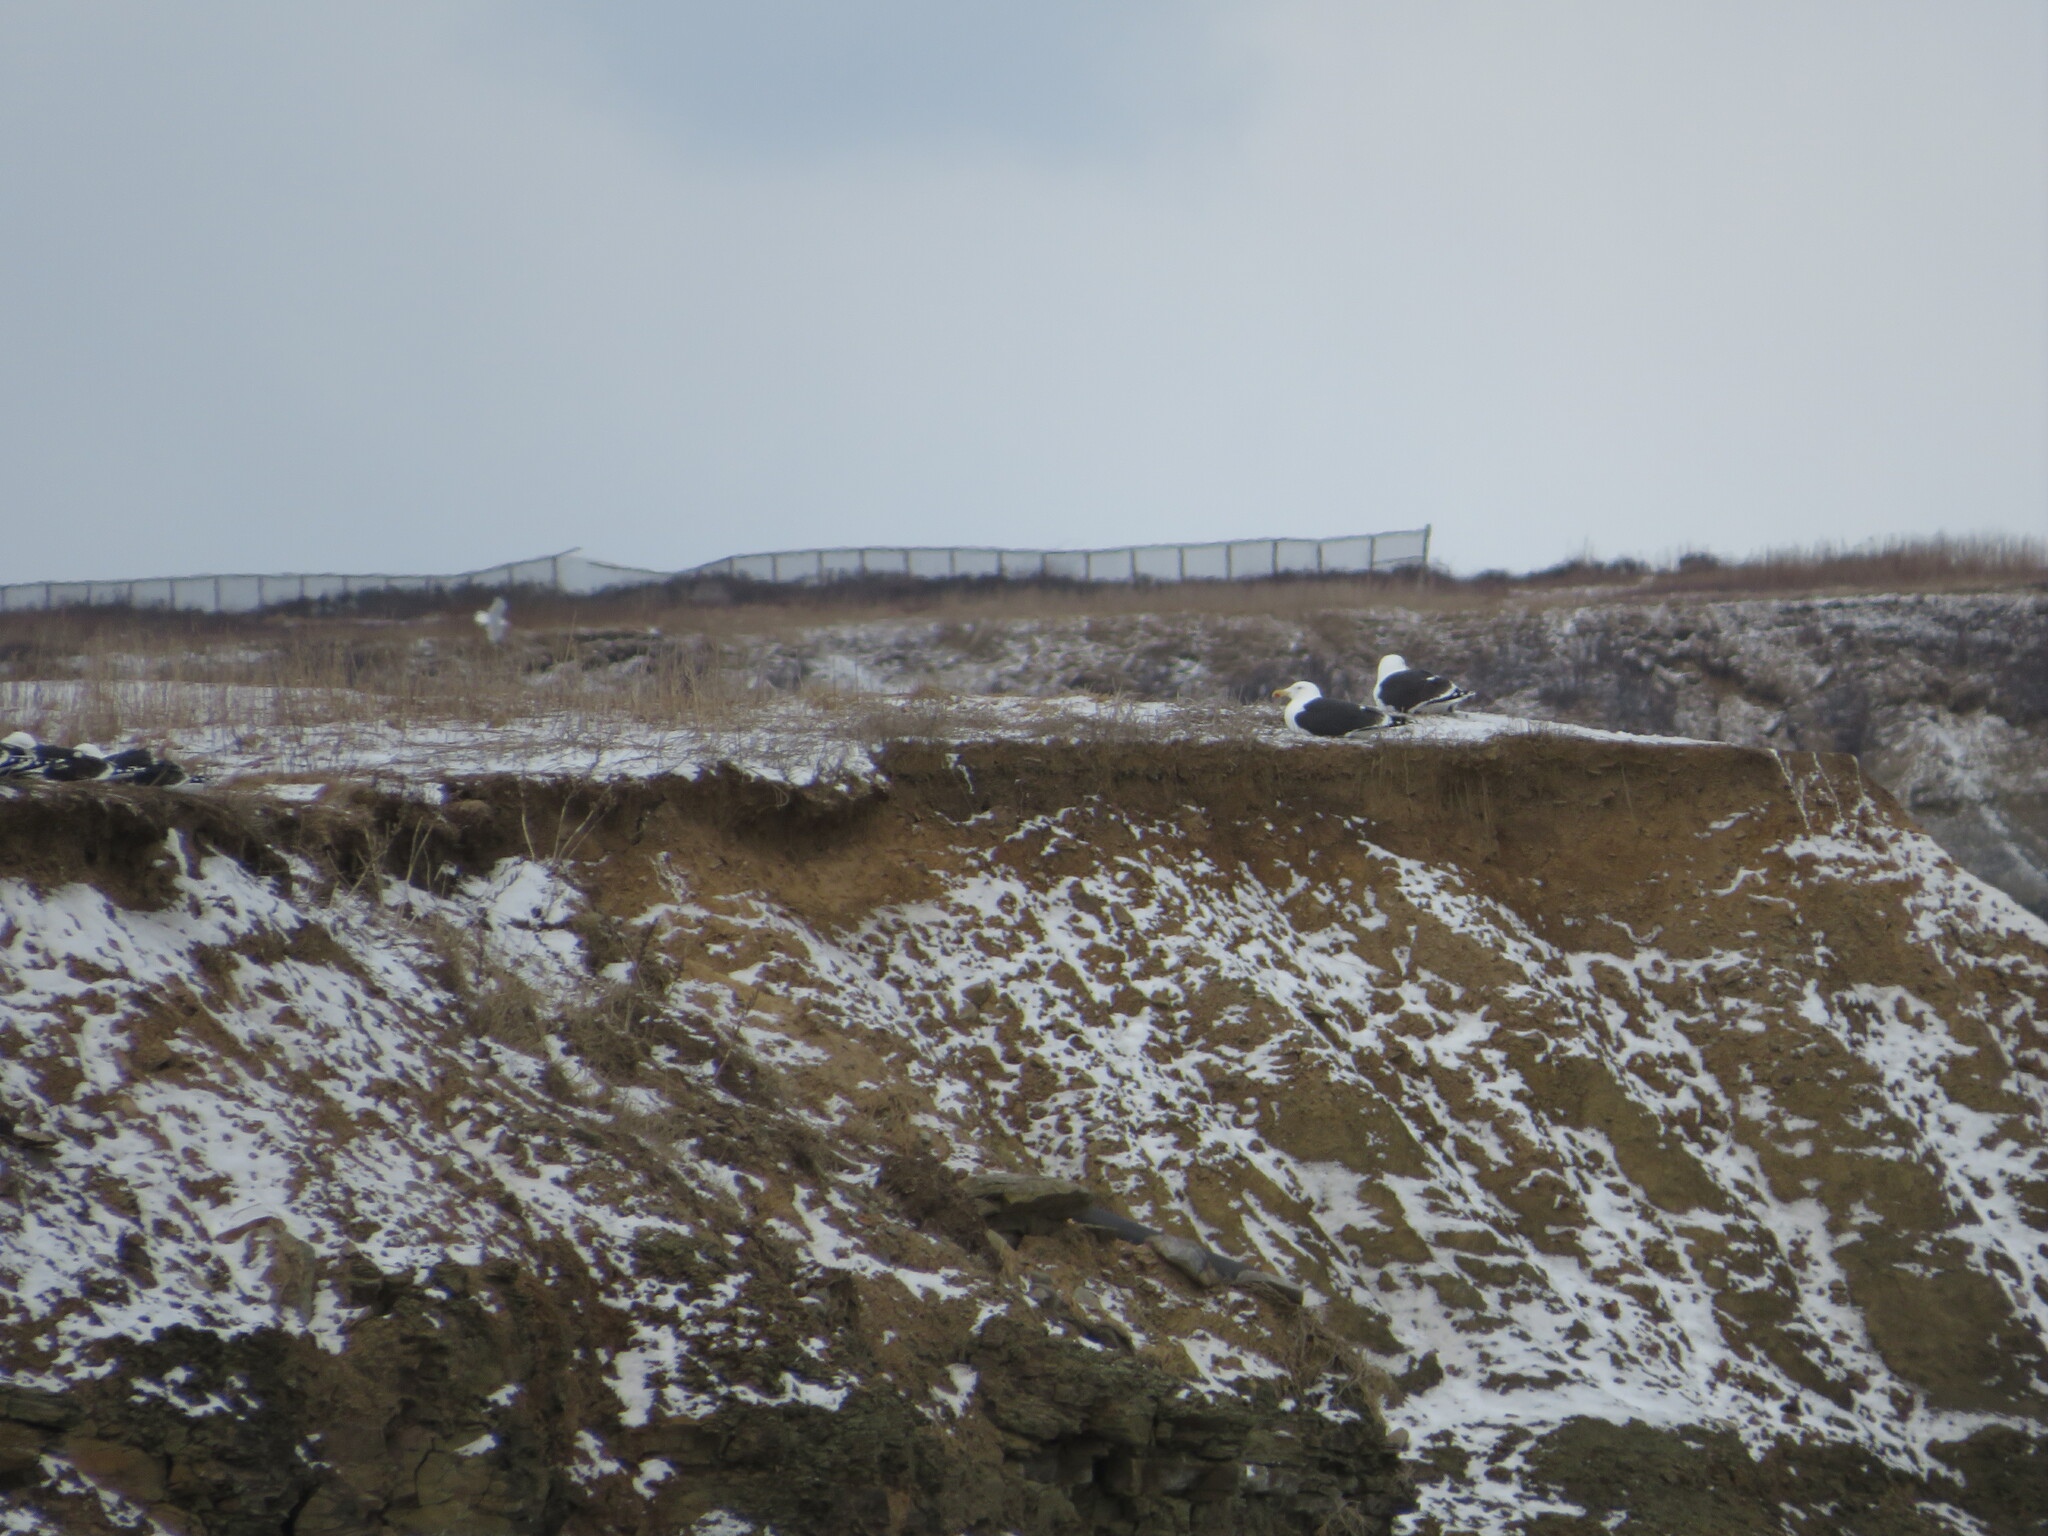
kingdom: Animalia
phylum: Chordata
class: Aves
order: Charadriiformes
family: Laridae
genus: Larus
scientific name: Larus marinus
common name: Great black-backed gull
